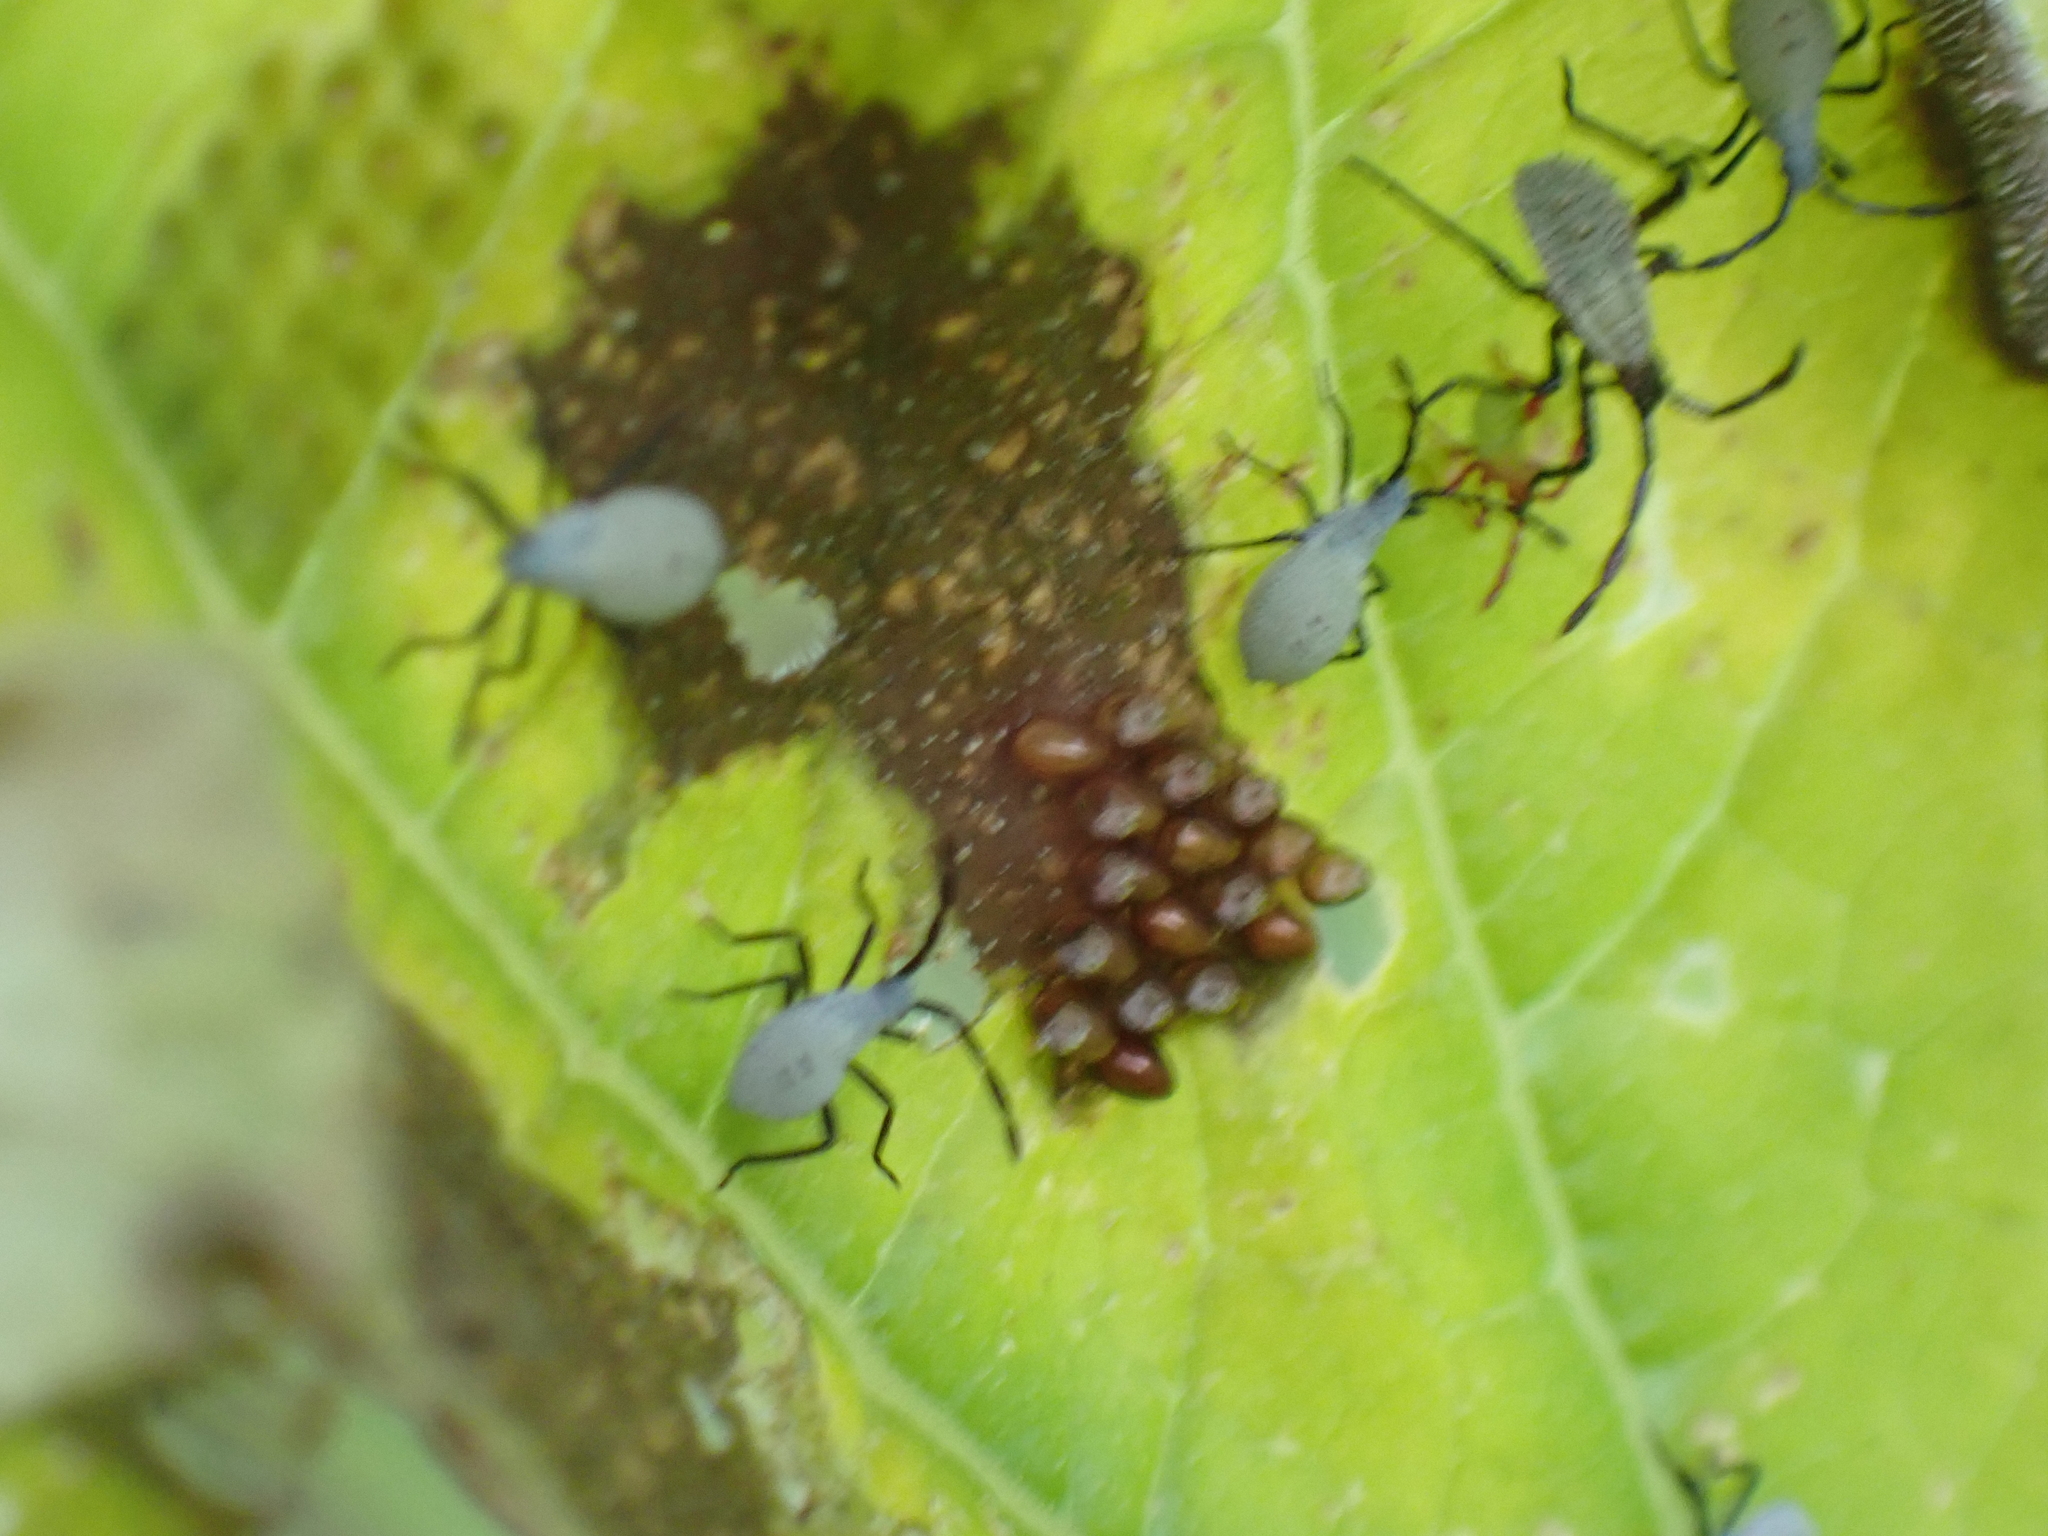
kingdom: Animalia
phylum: Arthropoda
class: Insecta
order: Hemiptera
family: Coreidae
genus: Anasa
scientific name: Anasa tristis
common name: Squash bug
